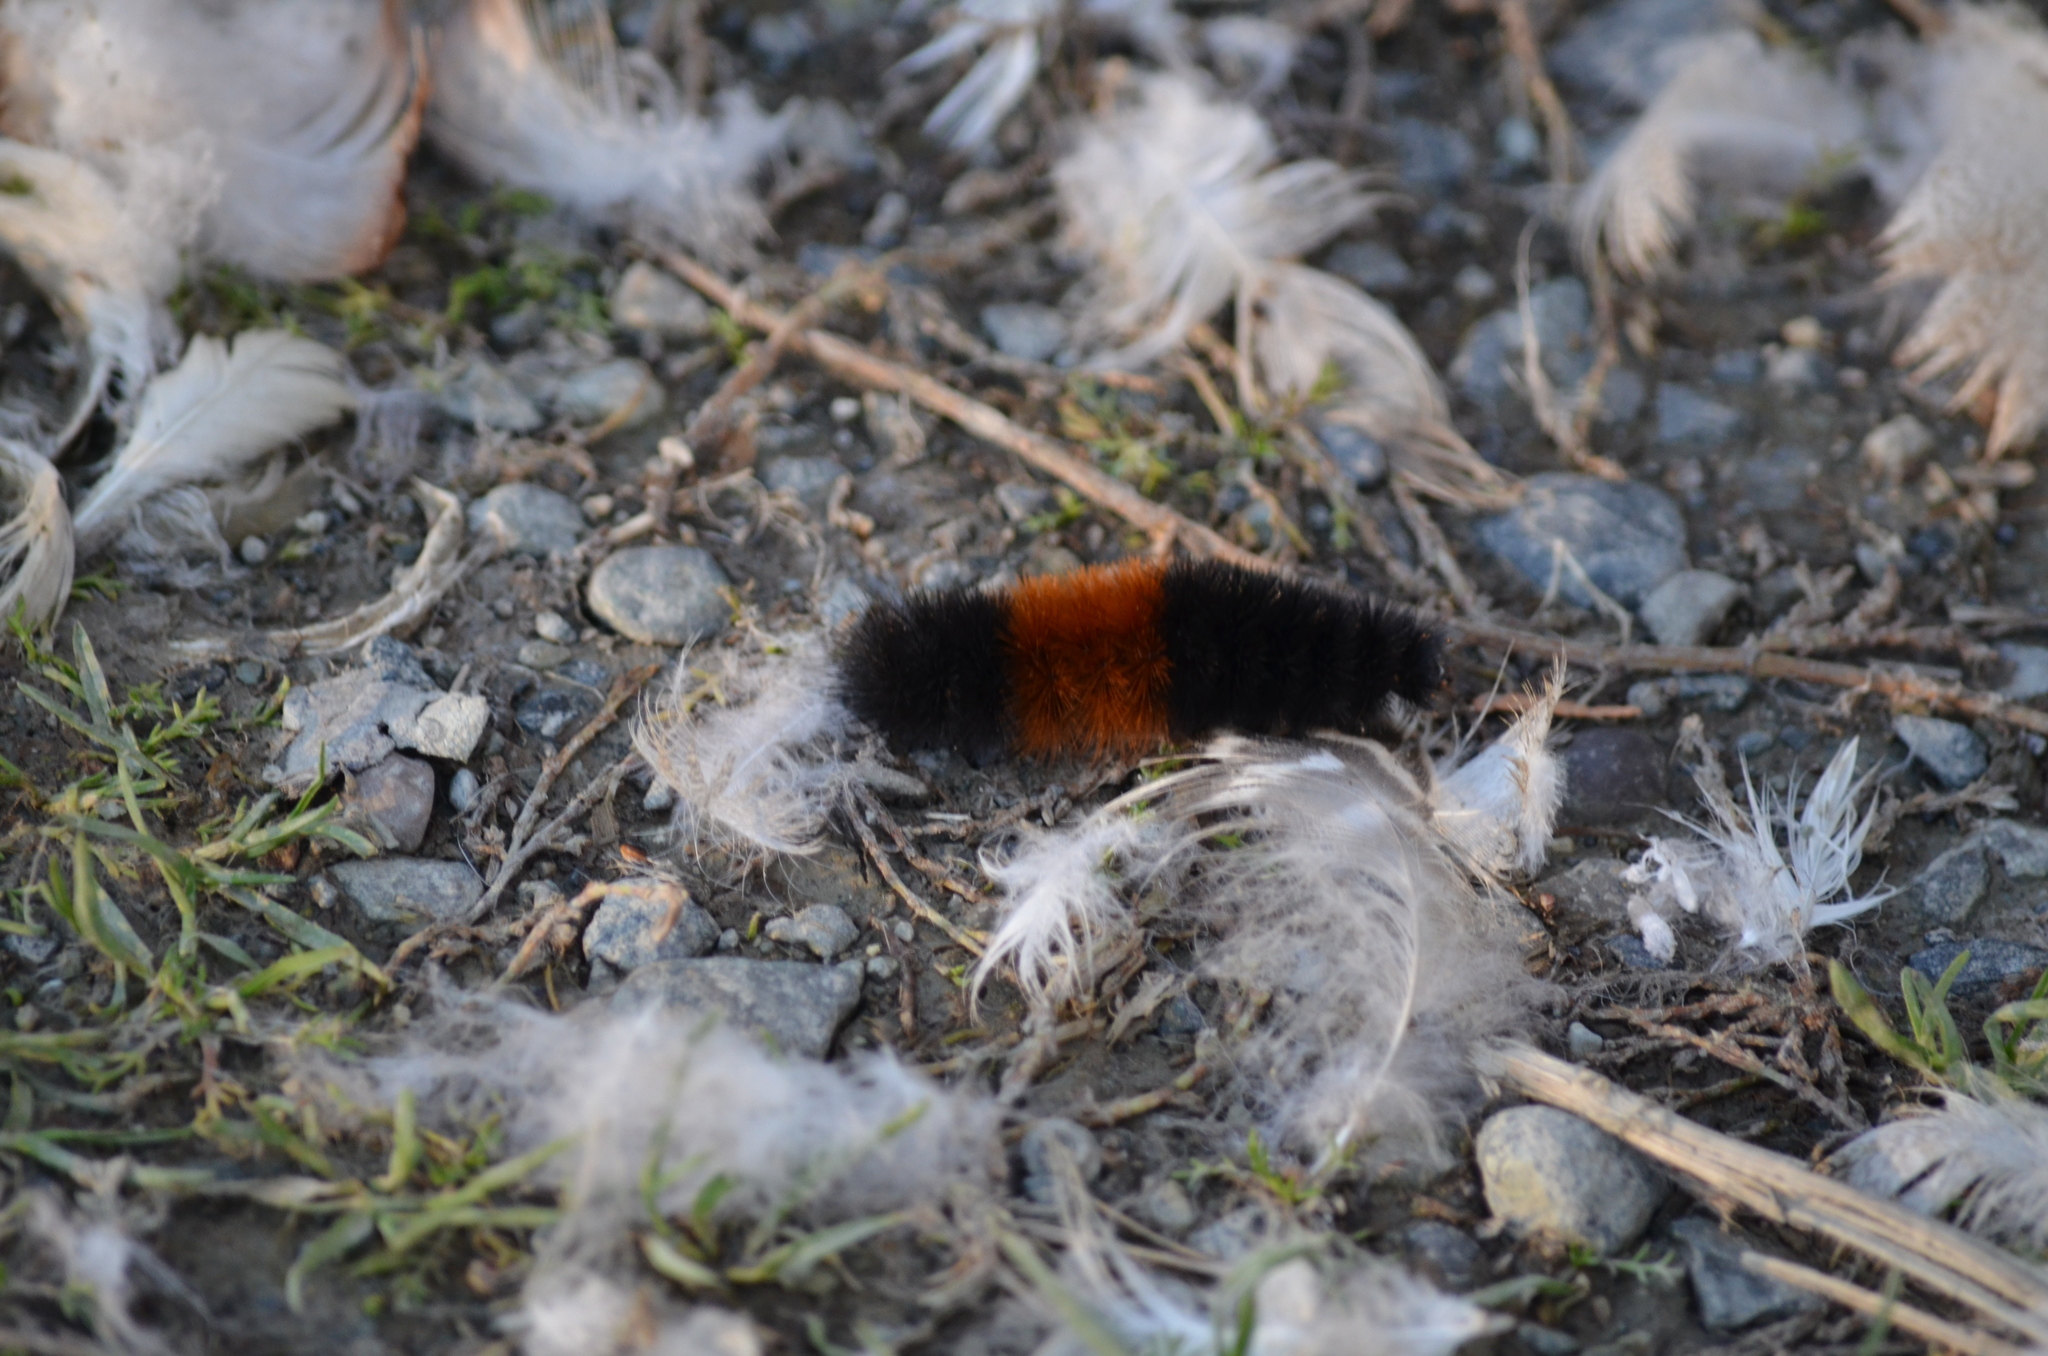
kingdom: Animalia
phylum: Arthropoda
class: Insecta
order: Lepidoptera
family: Erebidae
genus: Pyrrharctia
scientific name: Pyrrharctia isabella
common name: Isabella tiger moth
